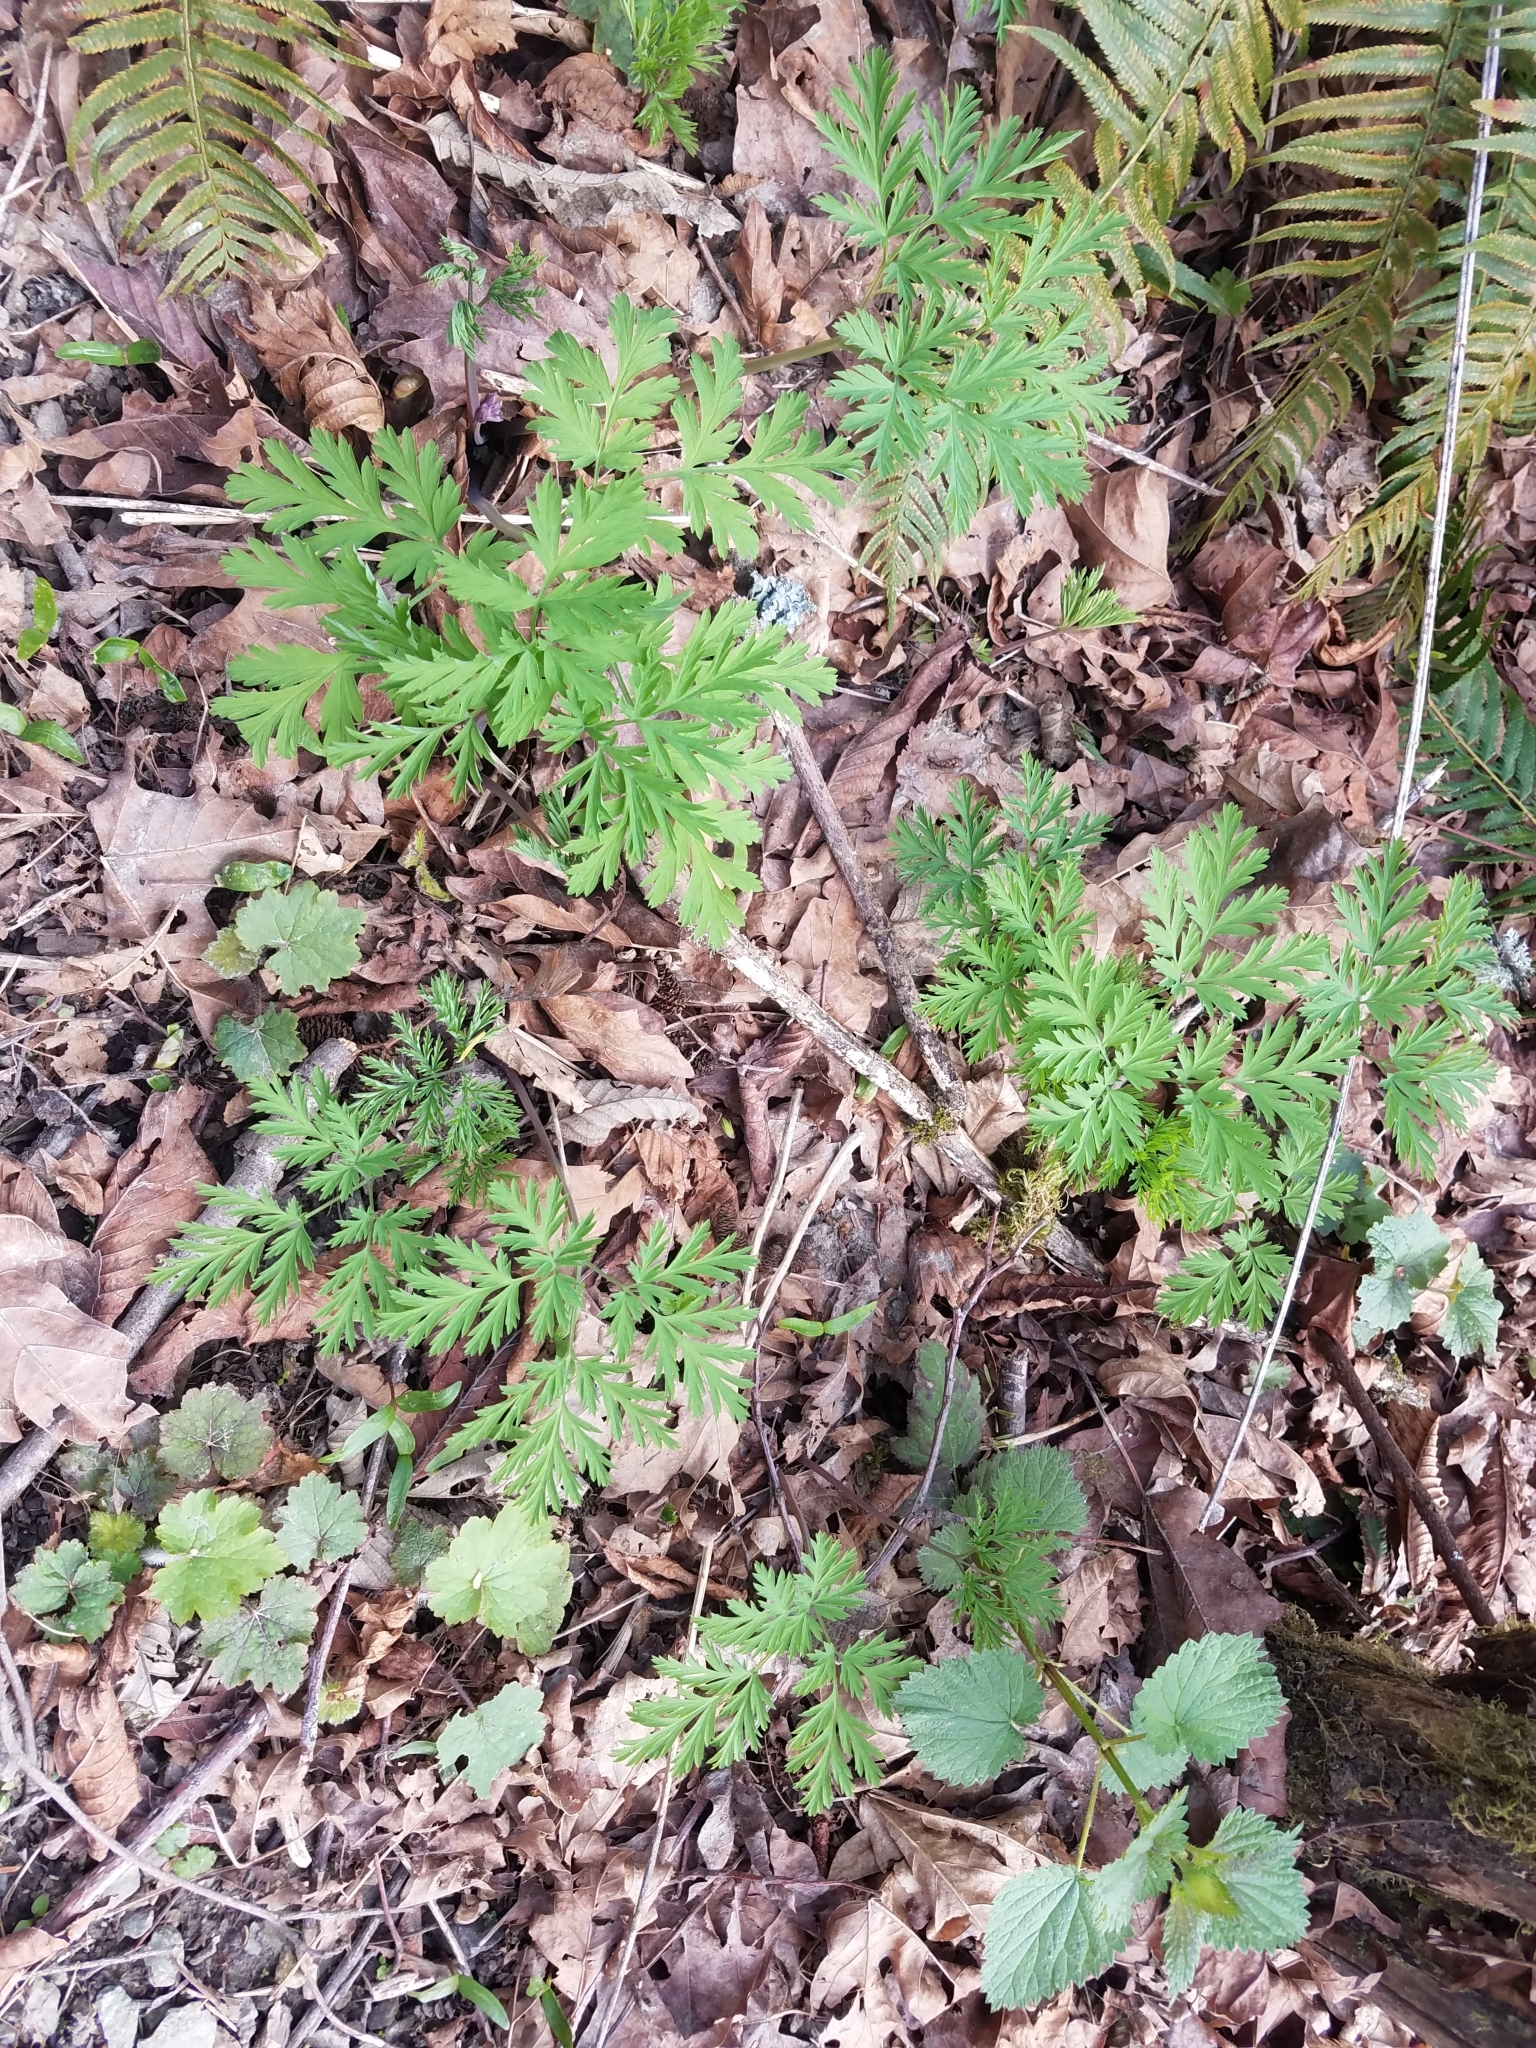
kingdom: Plantae
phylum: Tracheophyta
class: Magnoliopsida
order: Ranunculales
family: Papaveraceae
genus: Dicentra
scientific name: Dicentra formosa
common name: Bleeding-heart
